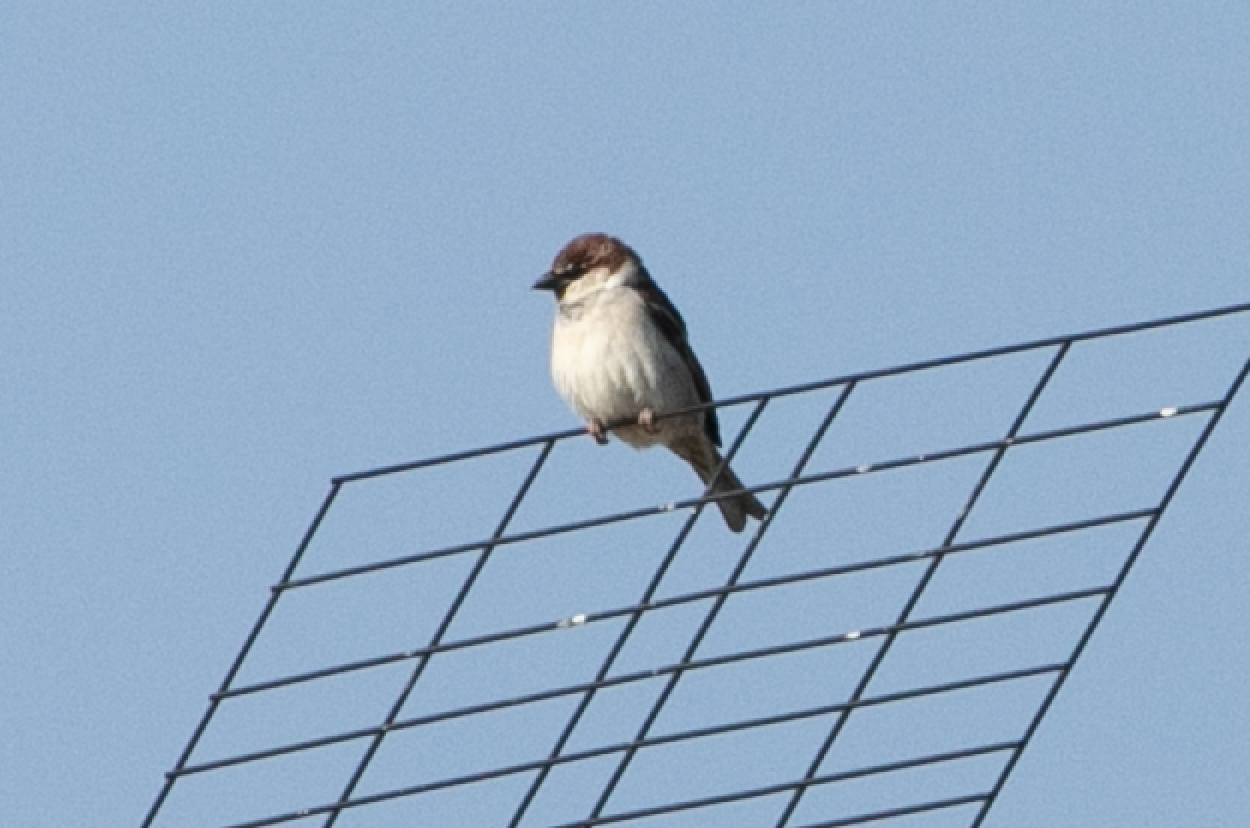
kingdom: Animalia
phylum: Chordata
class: Aves
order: Passeriformes
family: Passeridae
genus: Passer
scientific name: Passer italiae
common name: Italian sparrow
